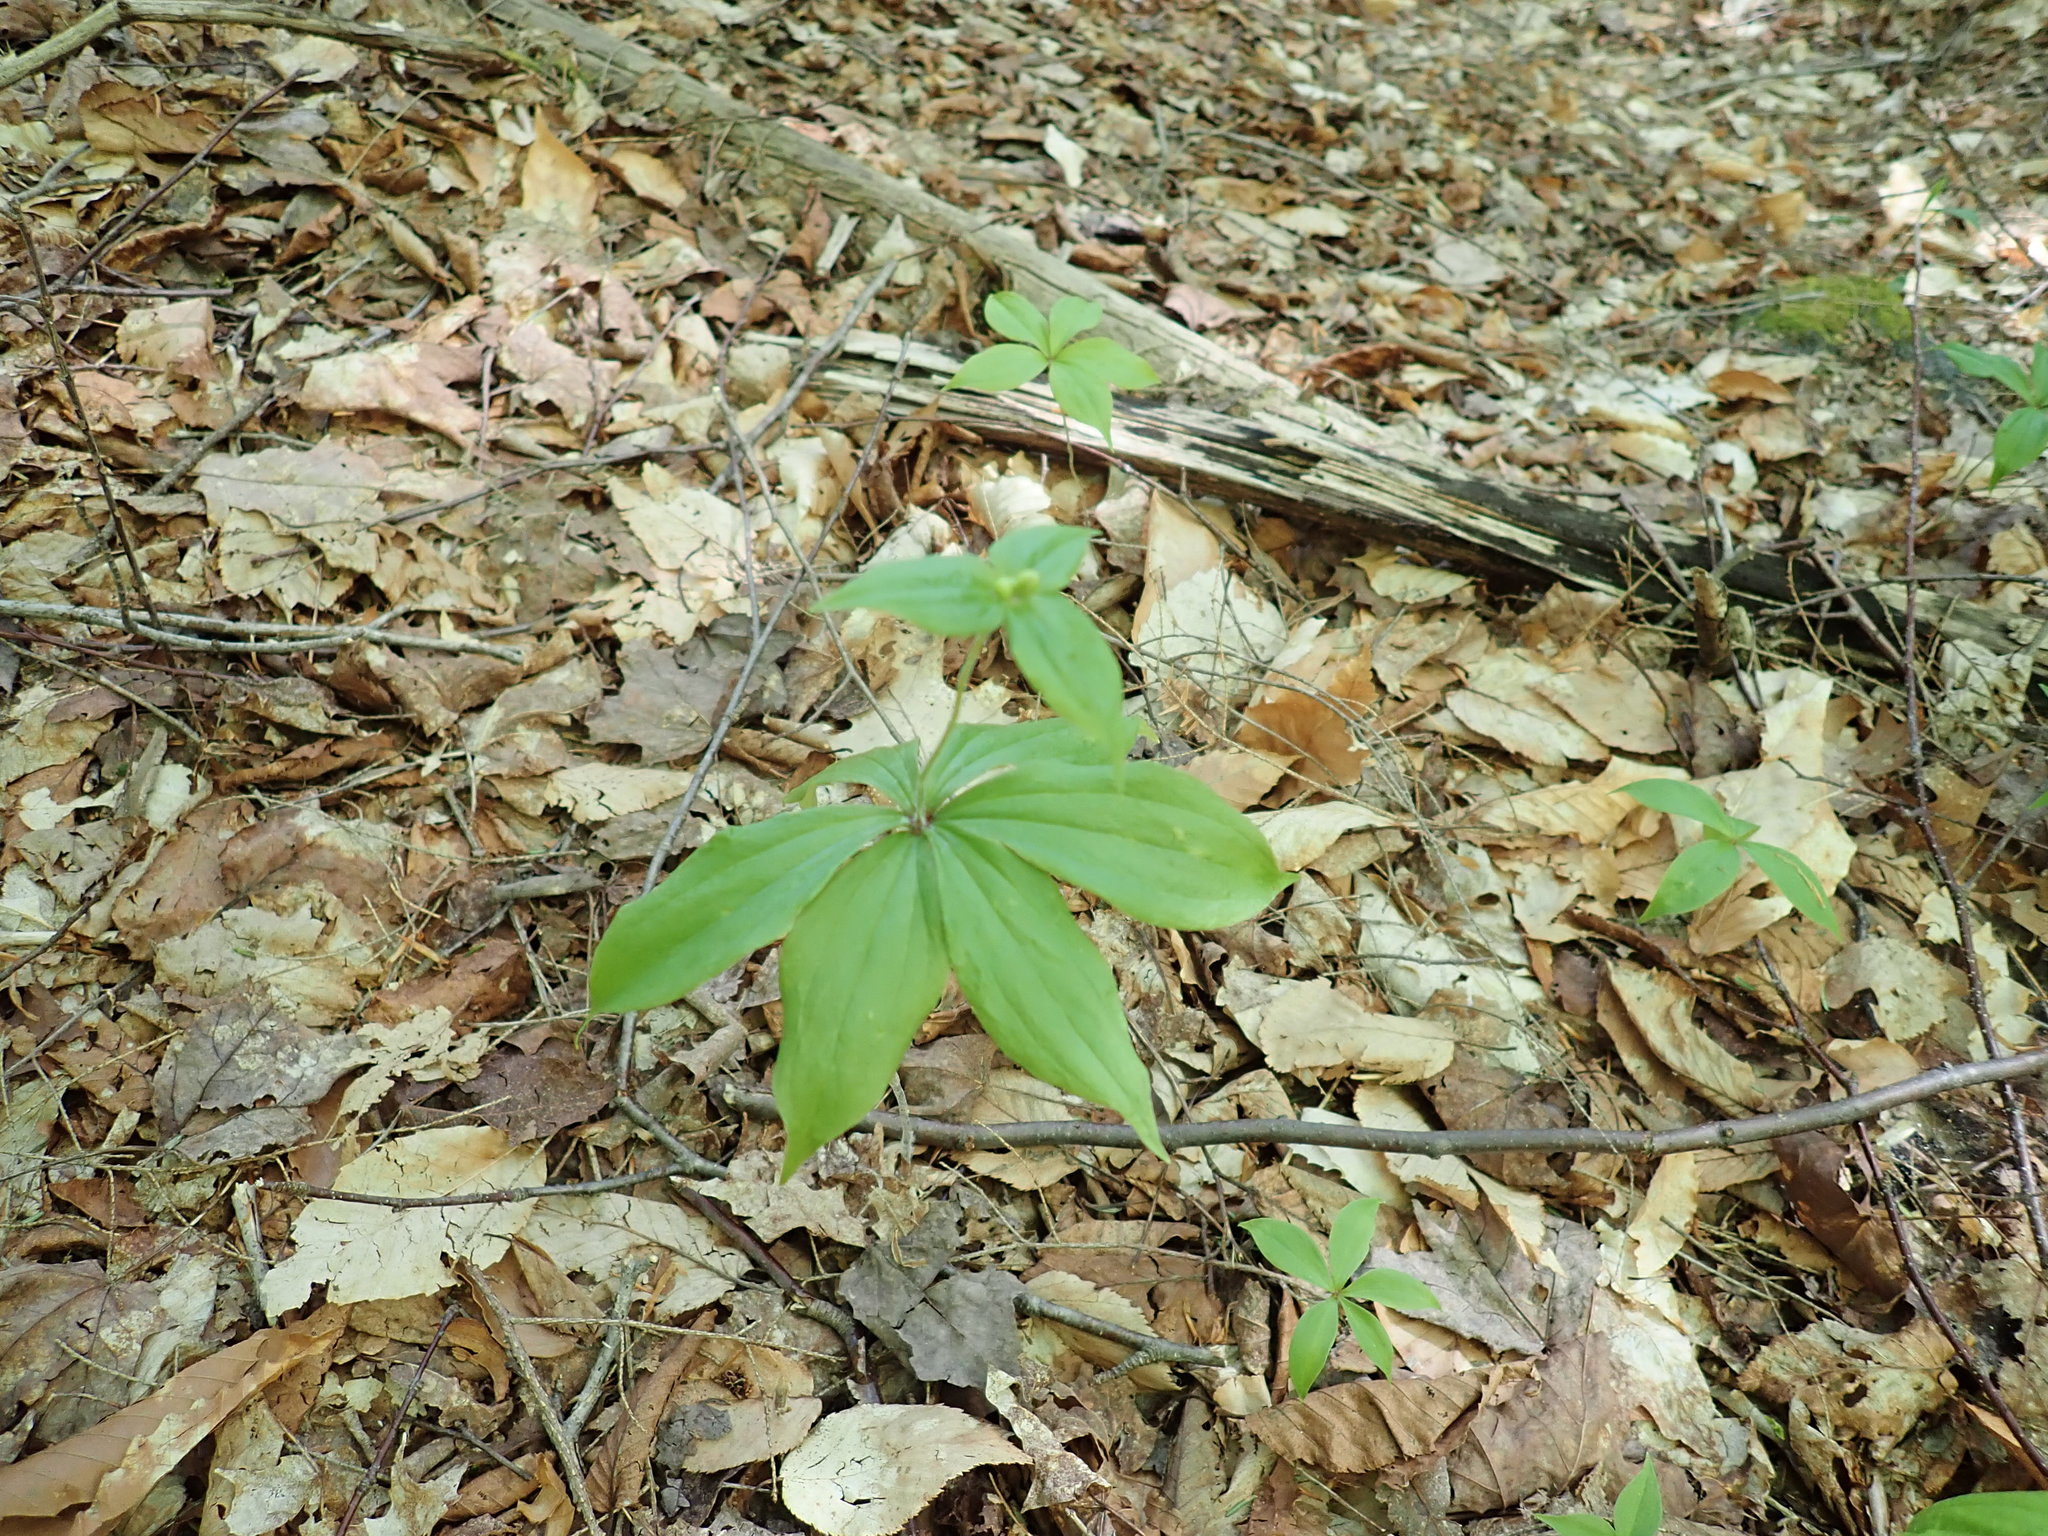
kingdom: Plantae
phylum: Tracheophyta
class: Liliopsida
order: Liliales
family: Liliaceae
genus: Medeola
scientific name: Medeola virginiana
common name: Indian cucumber-root
